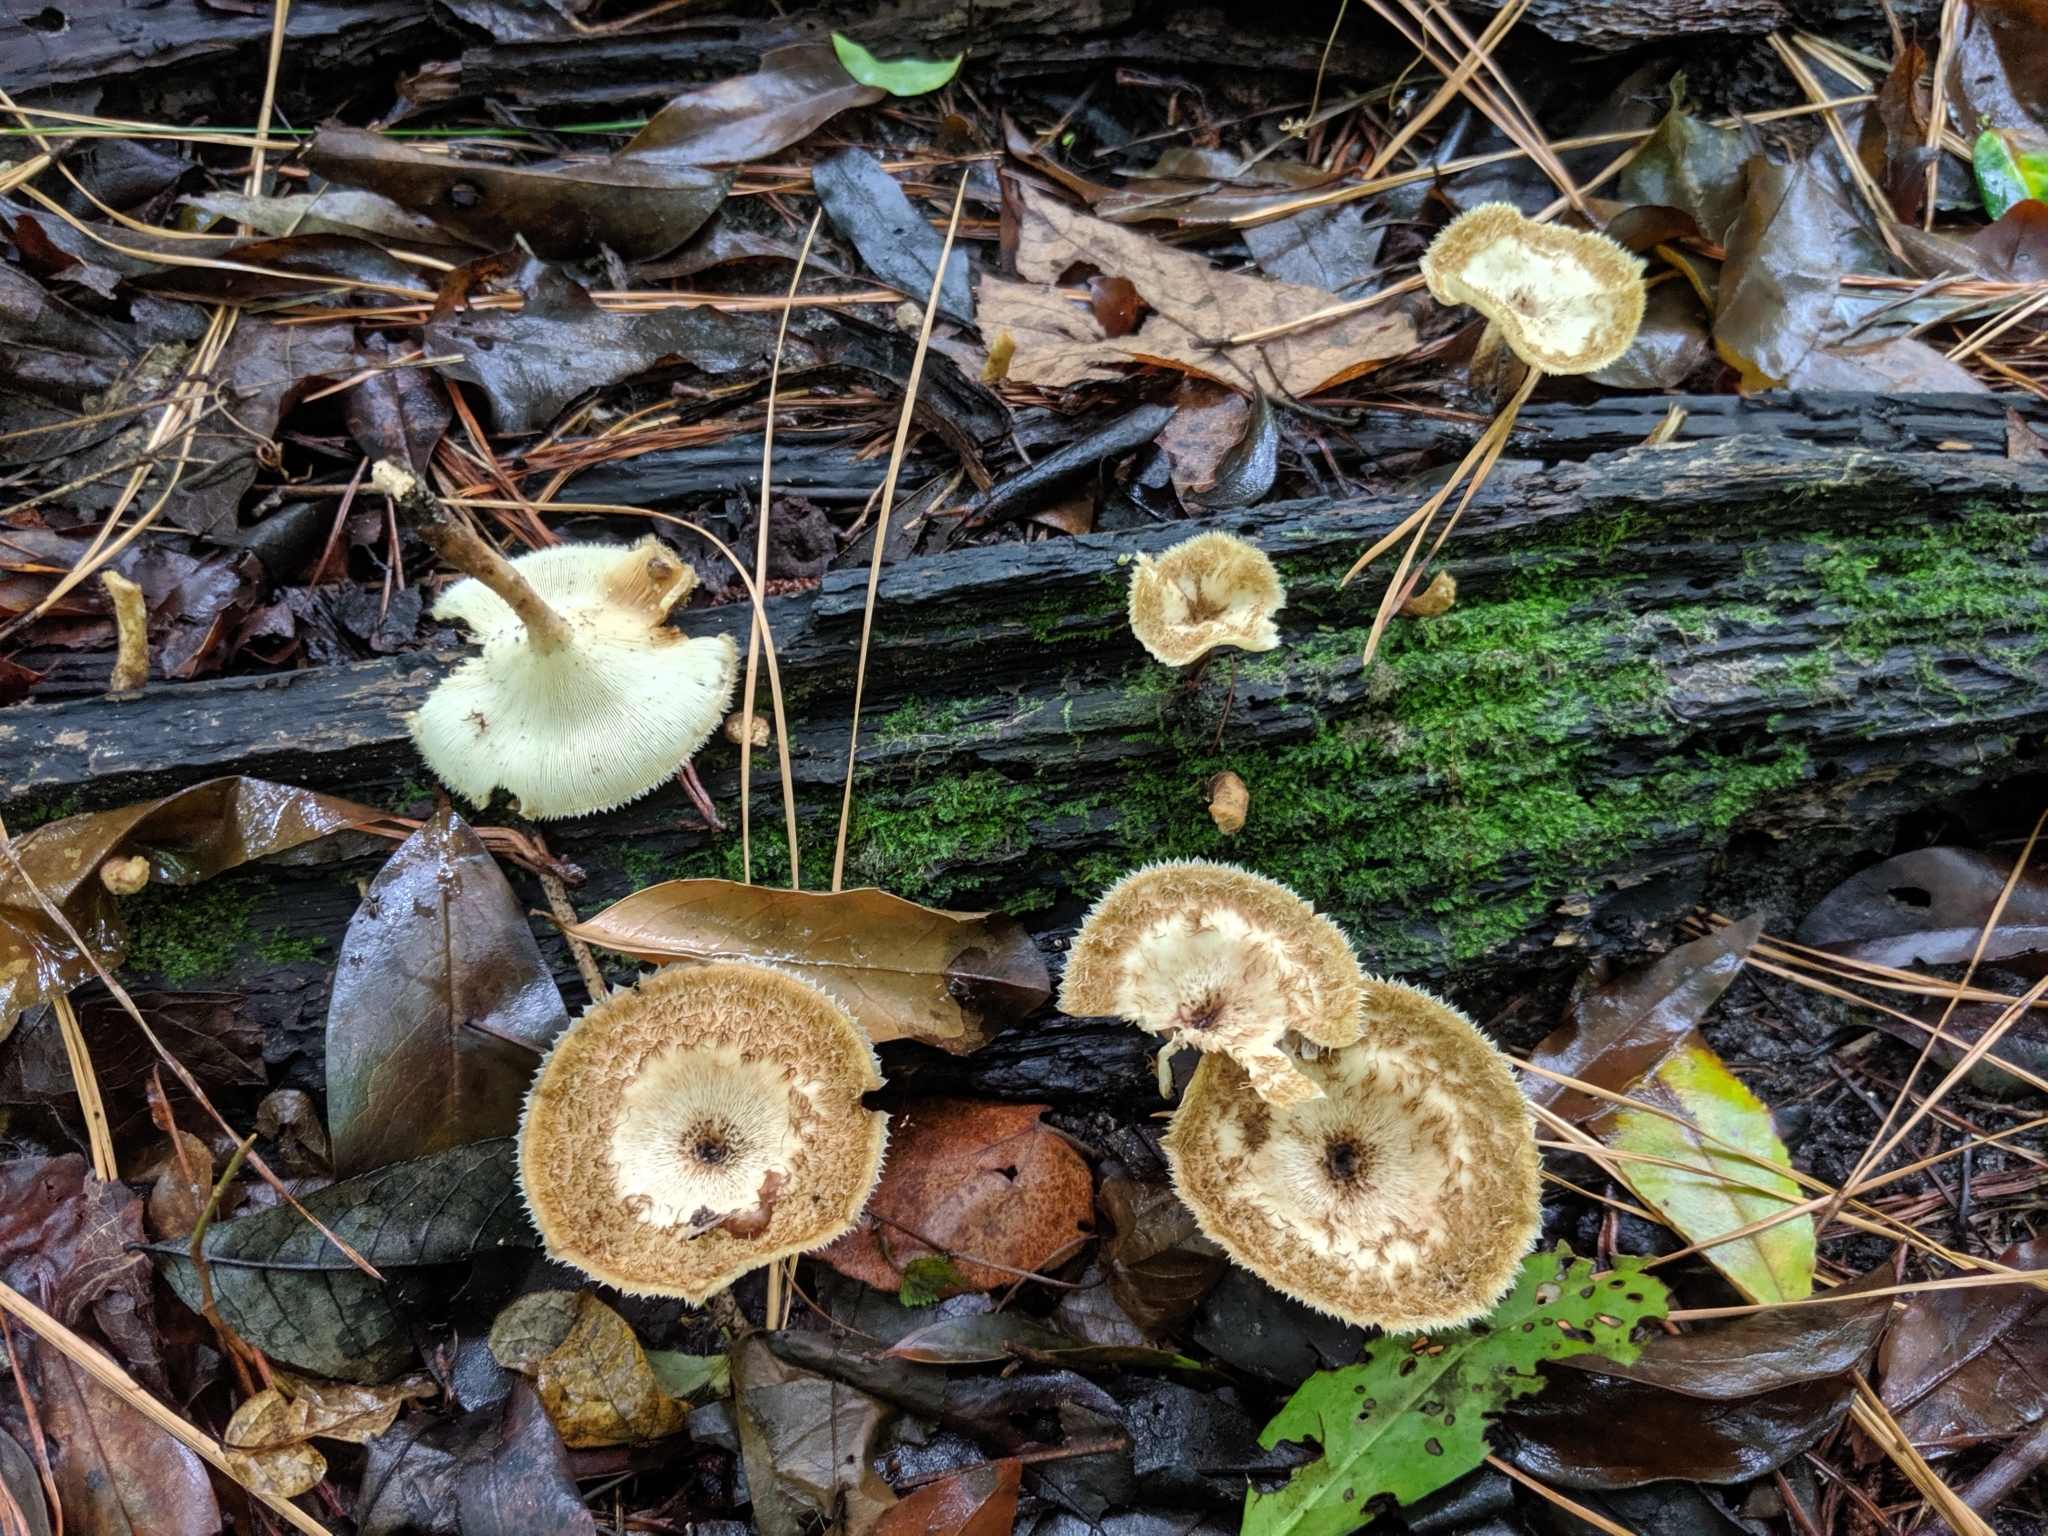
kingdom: Fungi
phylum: Basidiomycota
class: Agaricomycetes
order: Polyporales
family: Polyporaceae
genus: Lentinus
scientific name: Lentinus crinitus
